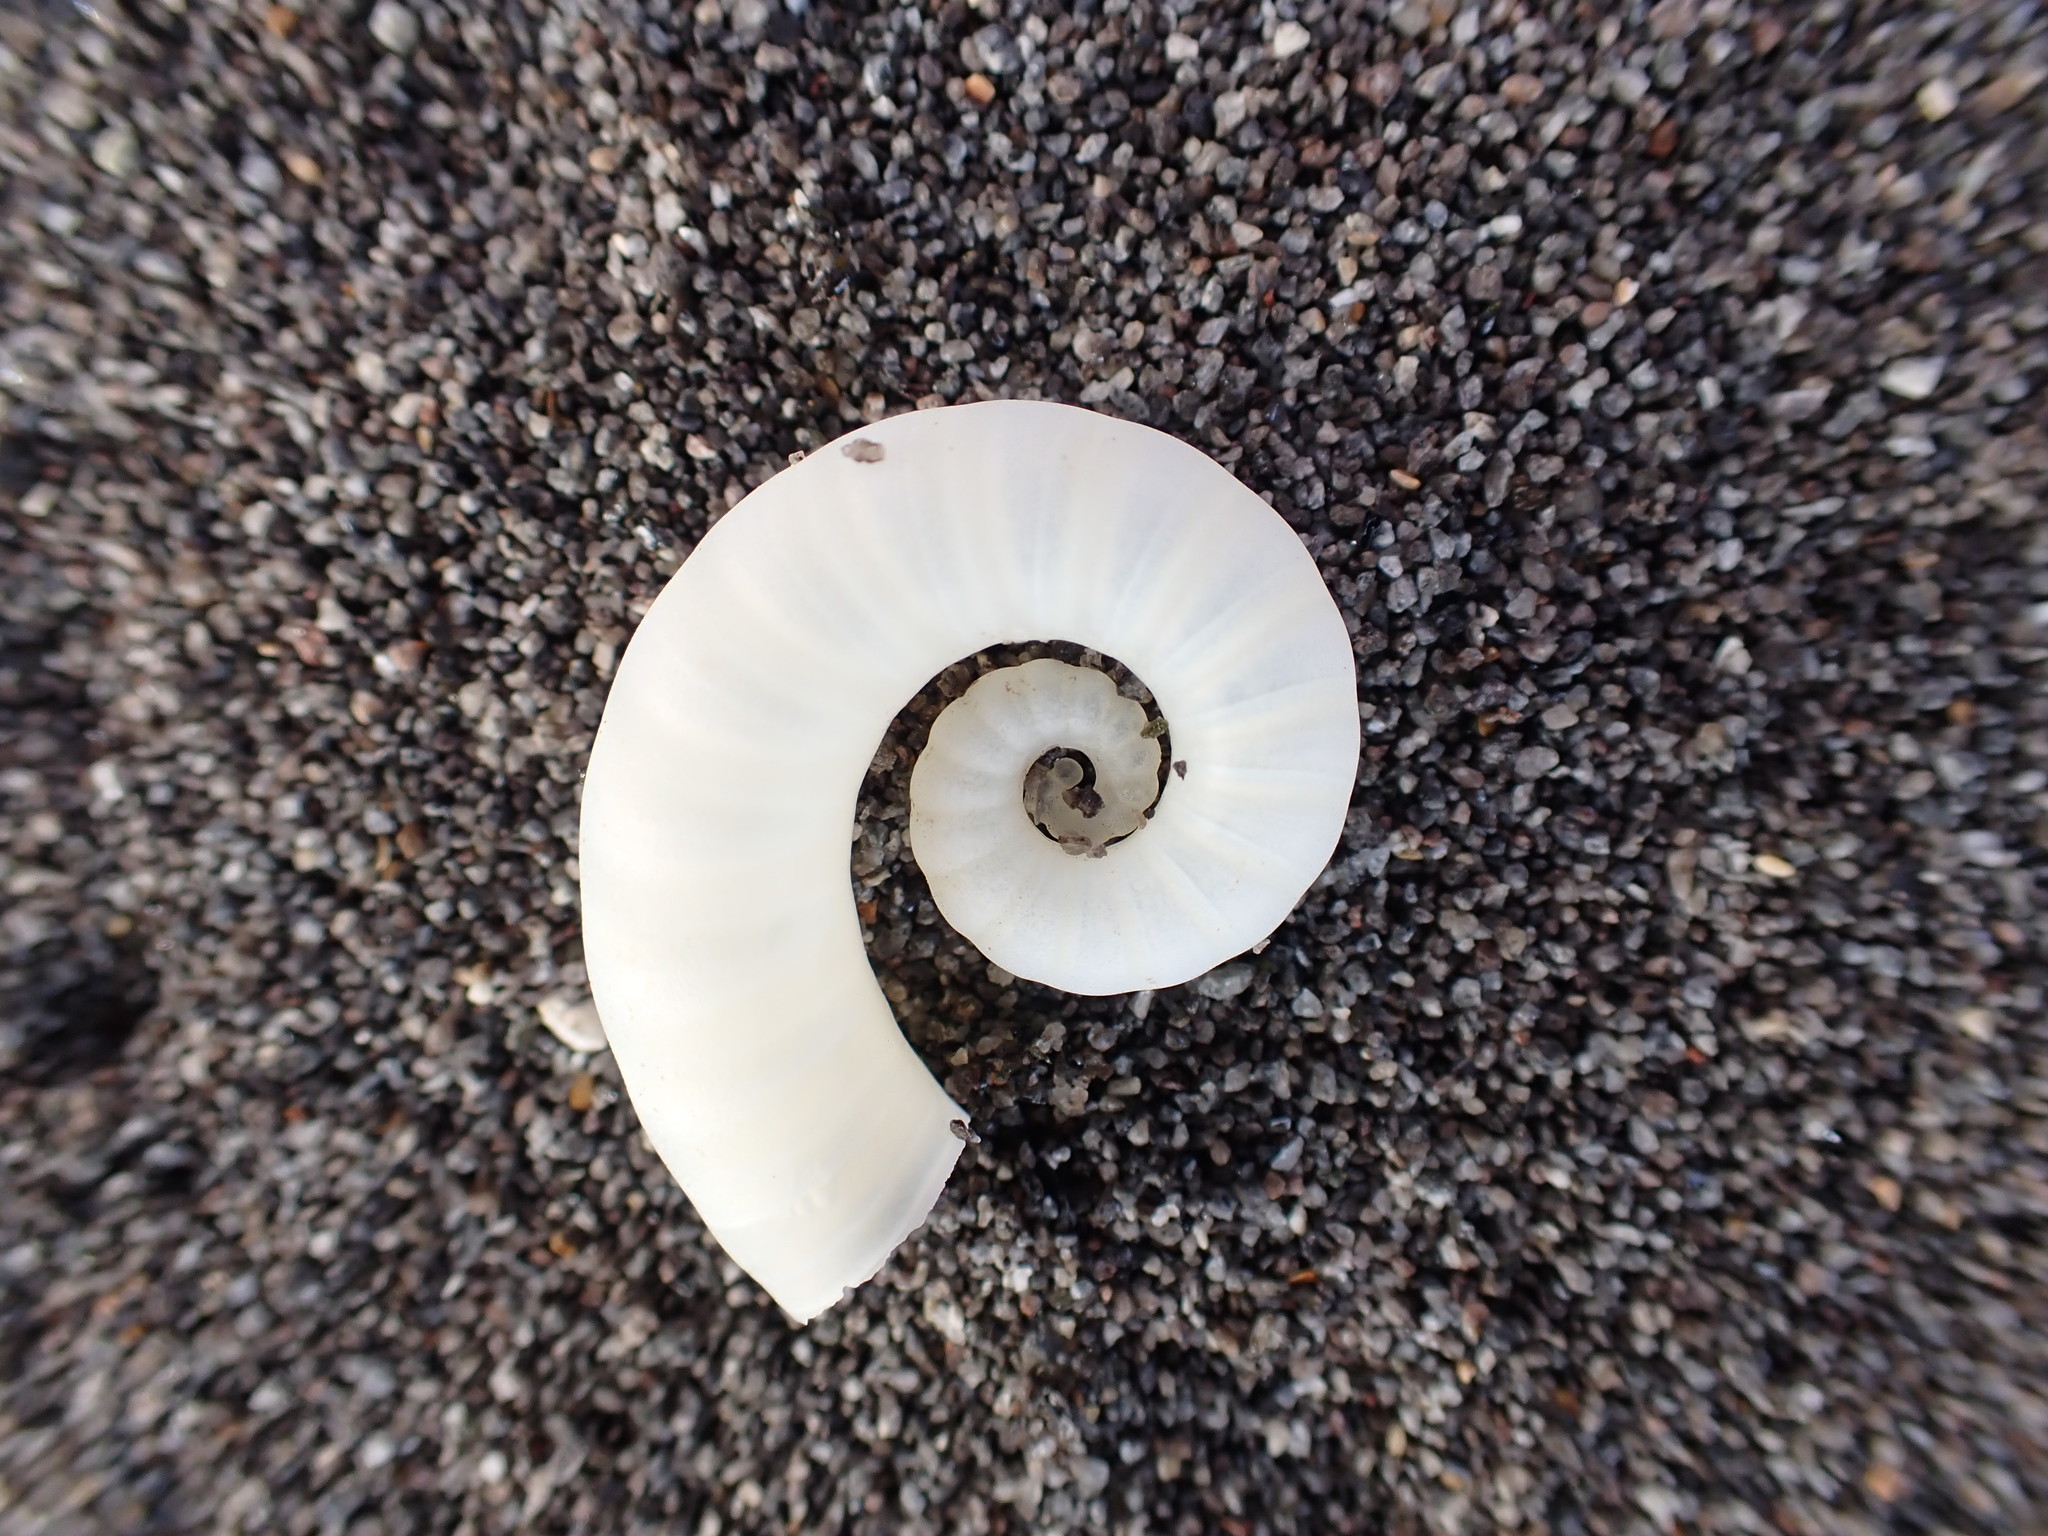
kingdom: Animalia
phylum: Mollusca
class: Cephalopoda
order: Spirulida
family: Spirulidae
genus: Spirula
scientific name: Spirula spirula
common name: Ram's horn squid
